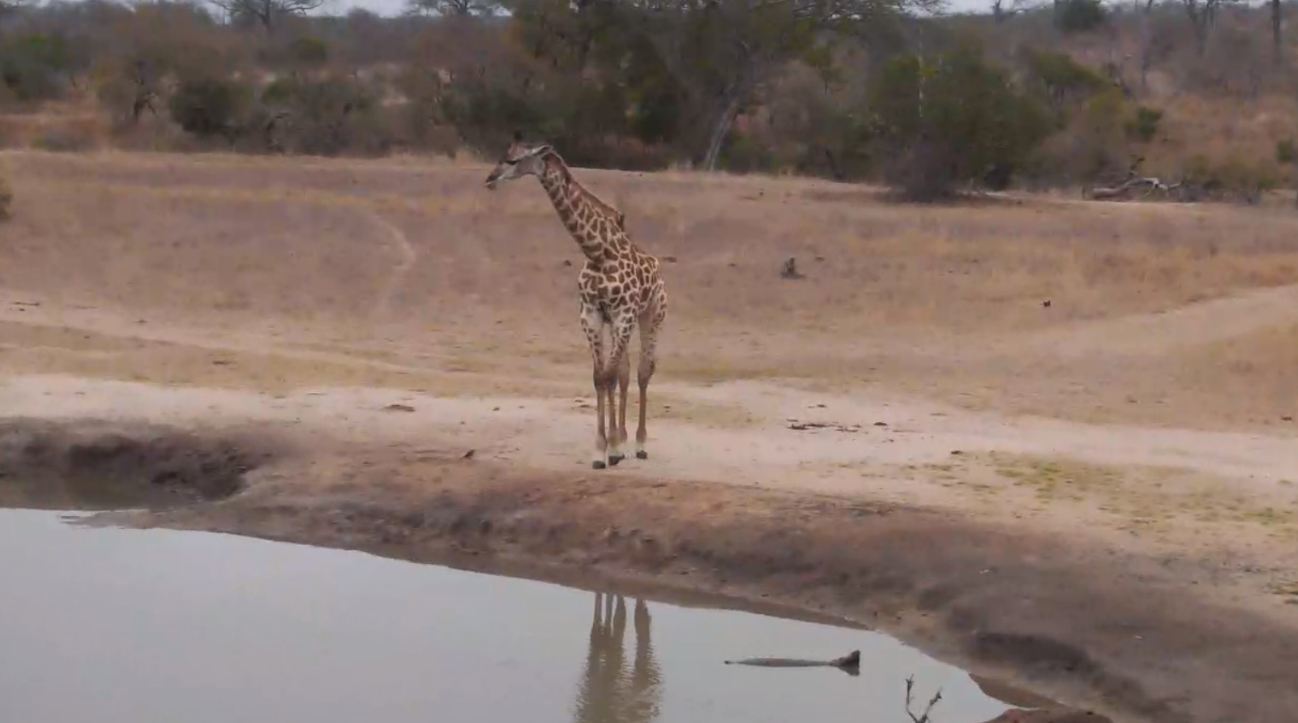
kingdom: Animalia
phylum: Chordata
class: Mammalia
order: Artiodactyla
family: Giraffidae
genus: Giraffa
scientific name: Giraffa giraffa
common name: Southern giraffe
